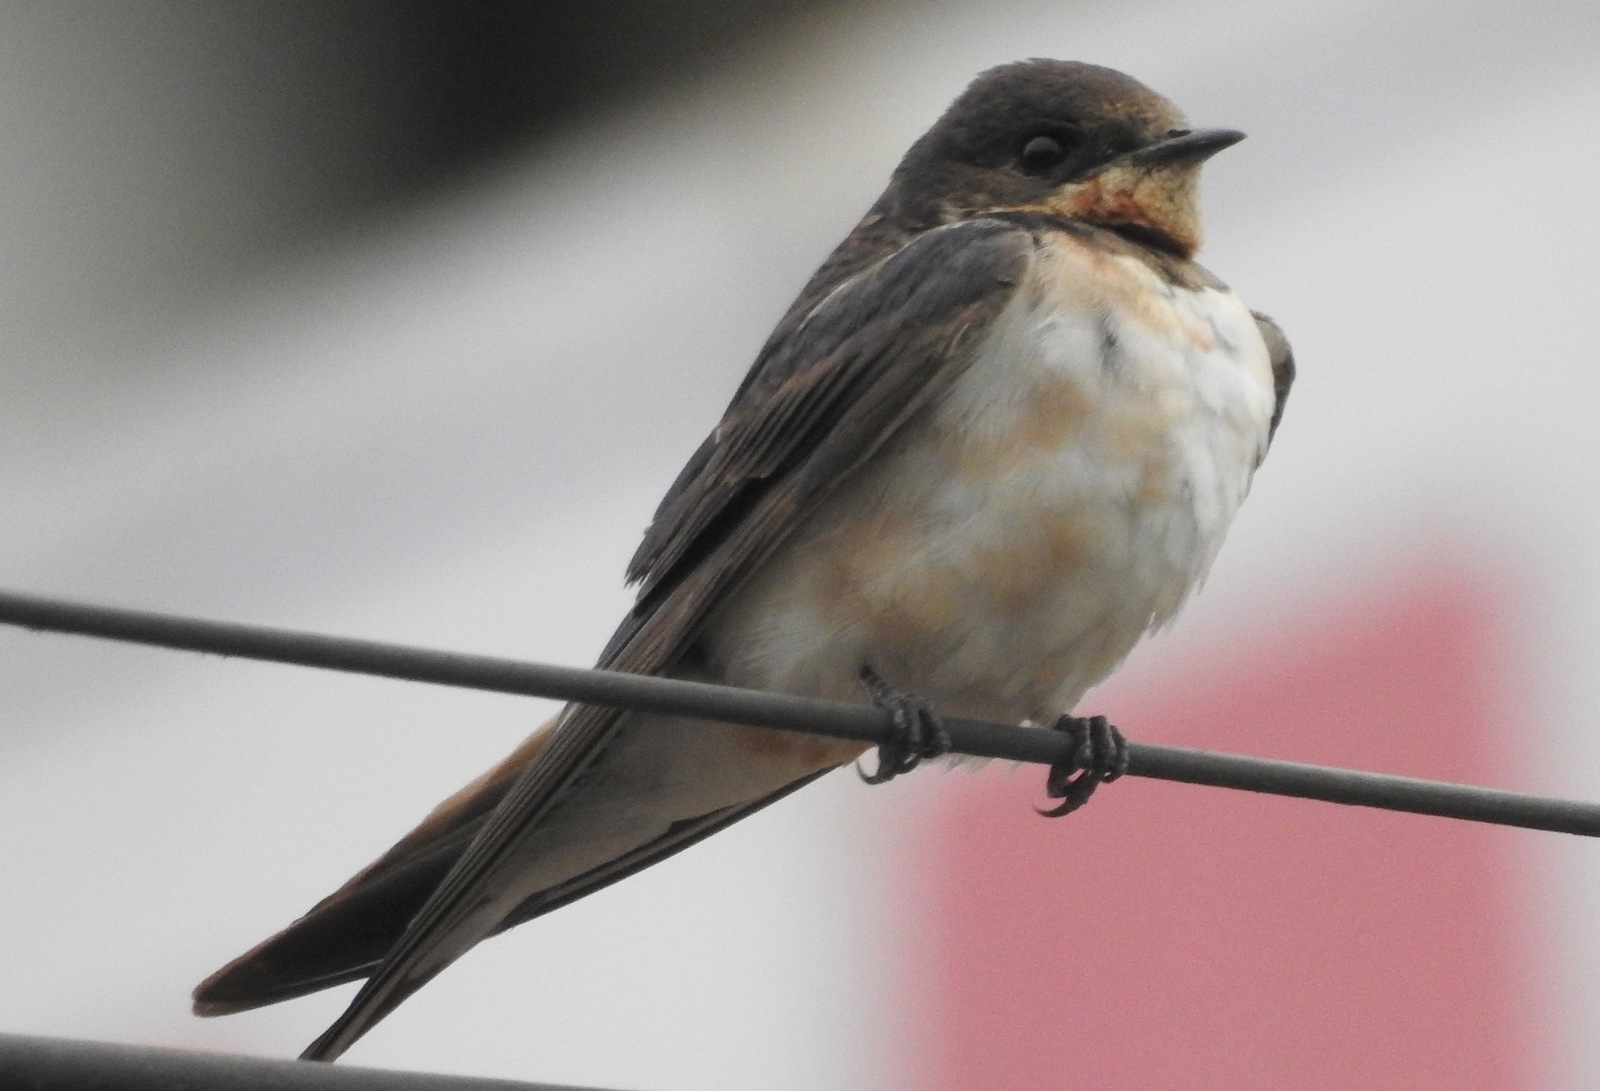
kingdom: Animalia
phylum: Chordata
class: Aves
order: Passeriformes
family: Hirundinidae
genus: Hirundo
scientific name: Hirundo rustica
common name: Barn swallow
